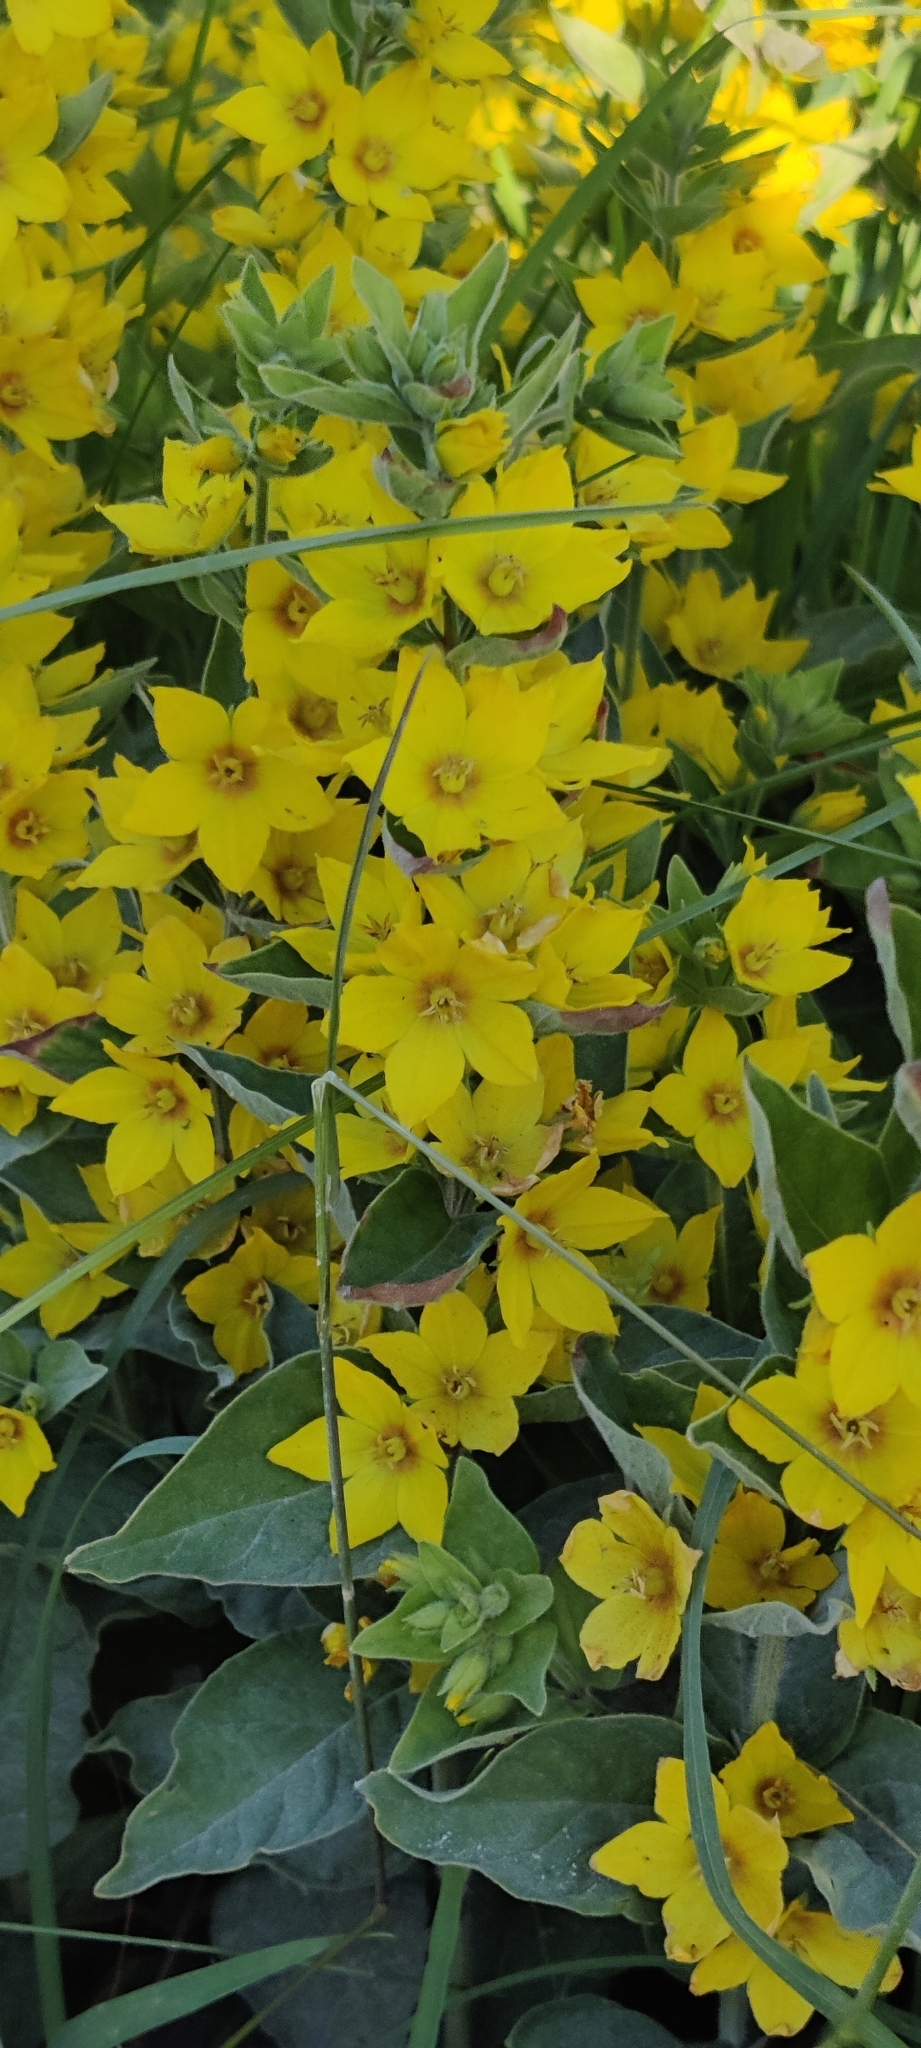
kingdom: Plantae
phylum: Tracheophyta
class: Magnoliopsida
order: Ericales
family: Primulaceae
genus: Lysimachia
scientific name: Lysimachia punctata
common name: Dotted loosestrife
